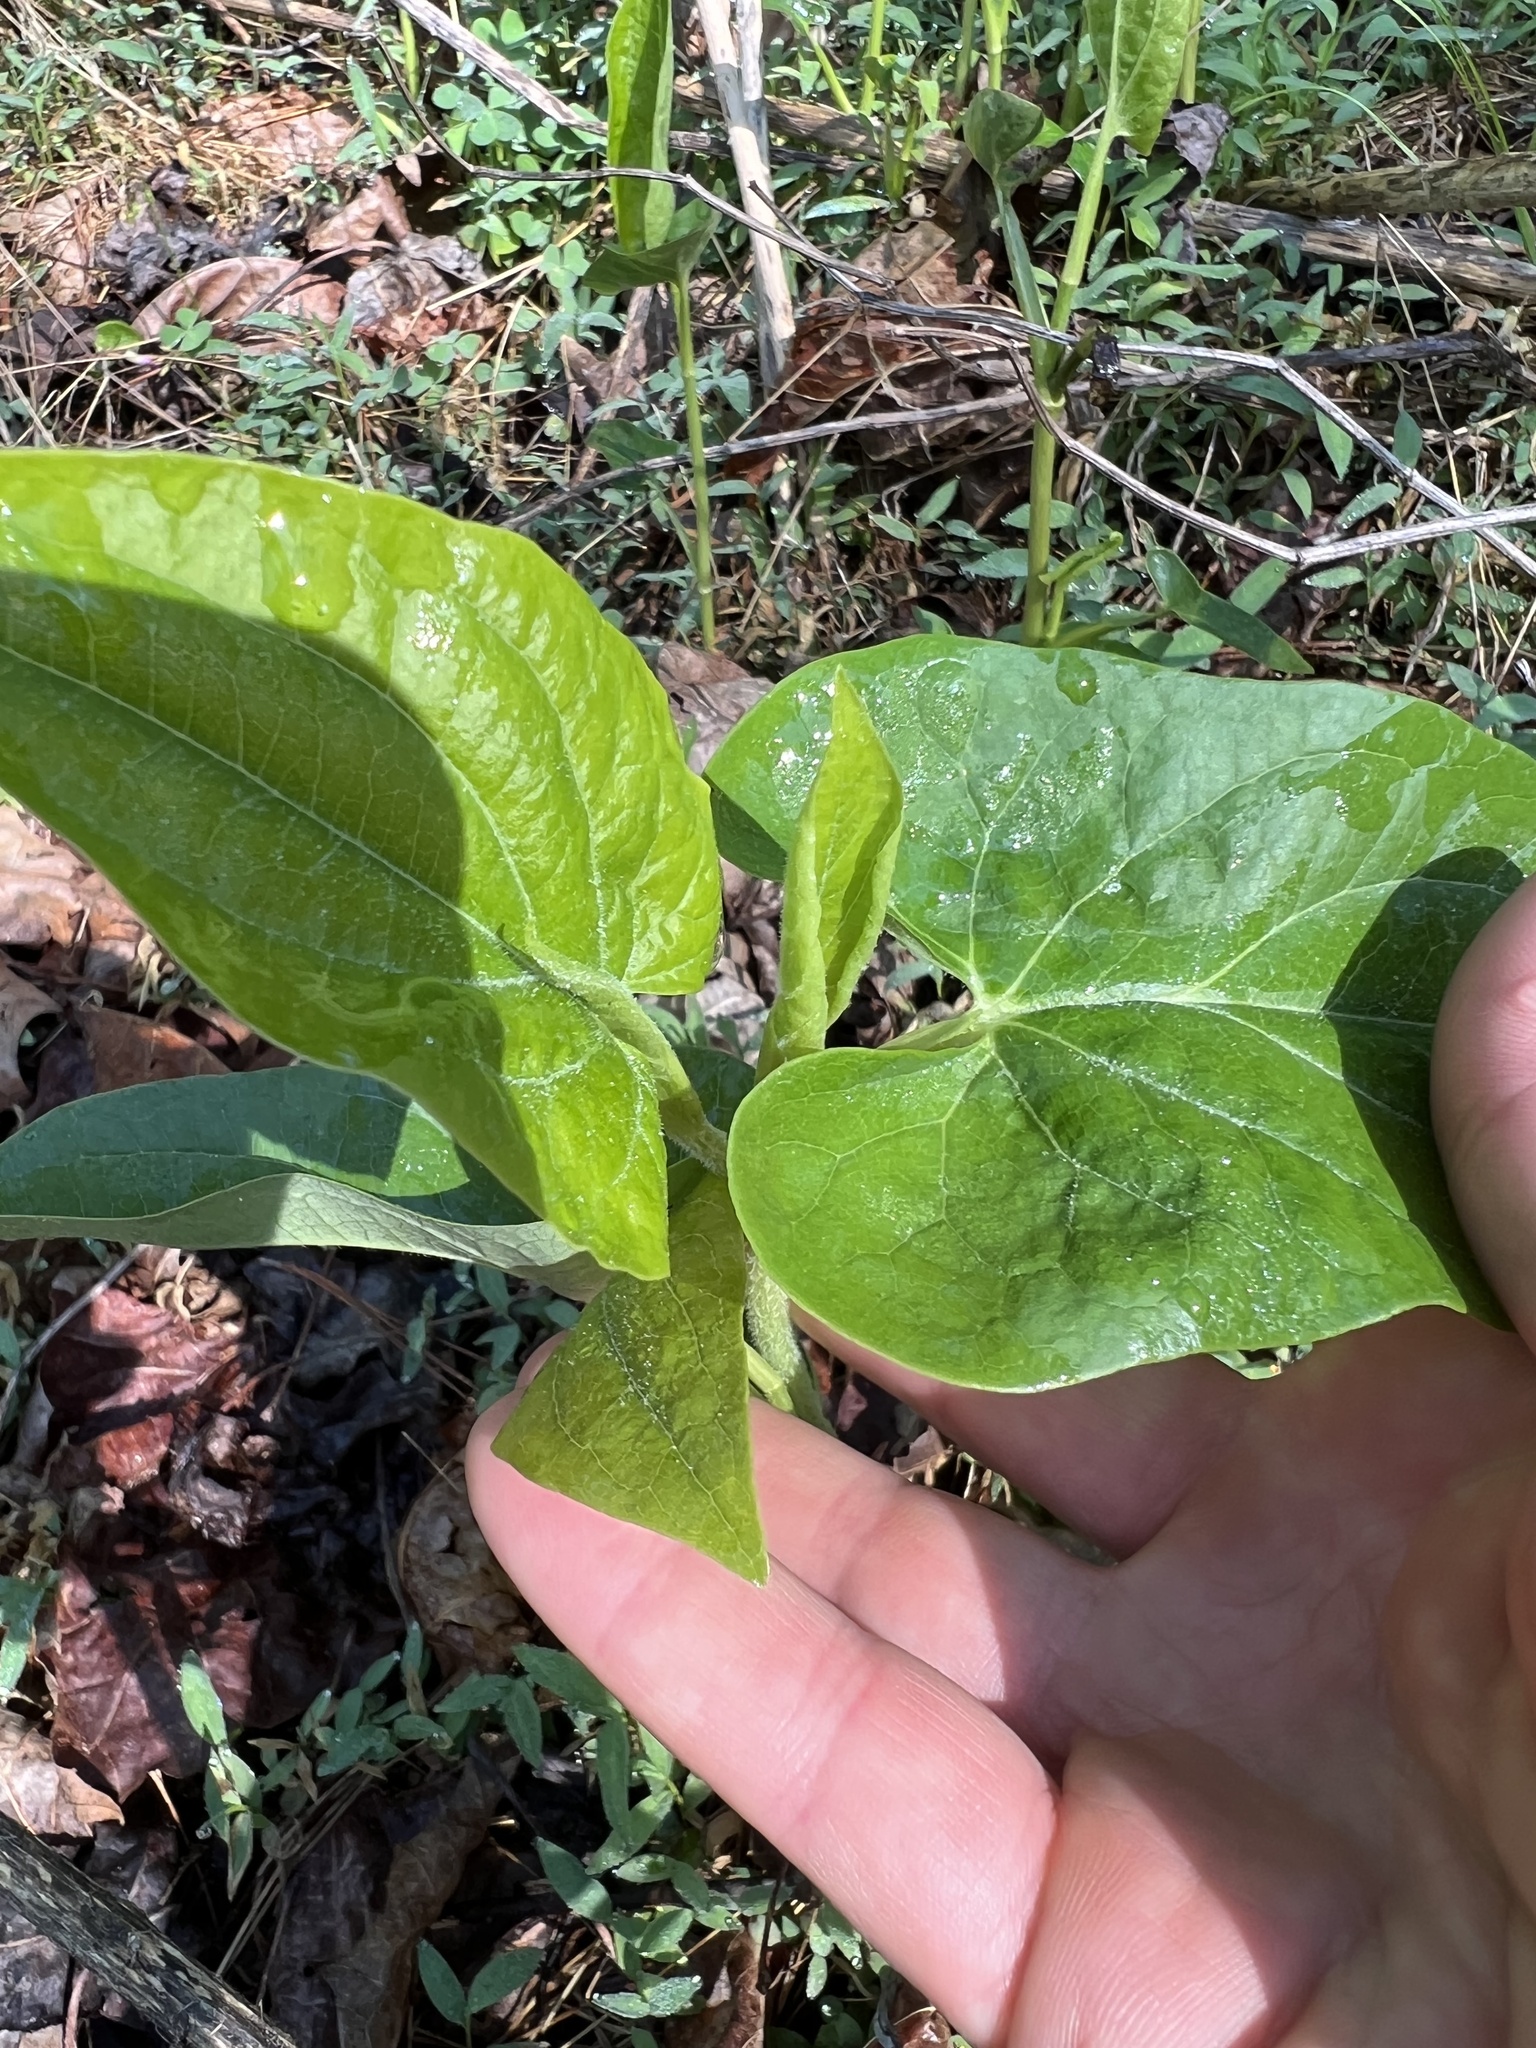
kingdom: Plantae
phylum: Tracheophyta
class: Magnoliopsida
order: Piperales
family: Saururaceae
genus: Saururus
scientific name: Saururus cernuus
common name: Lizard's-tail
